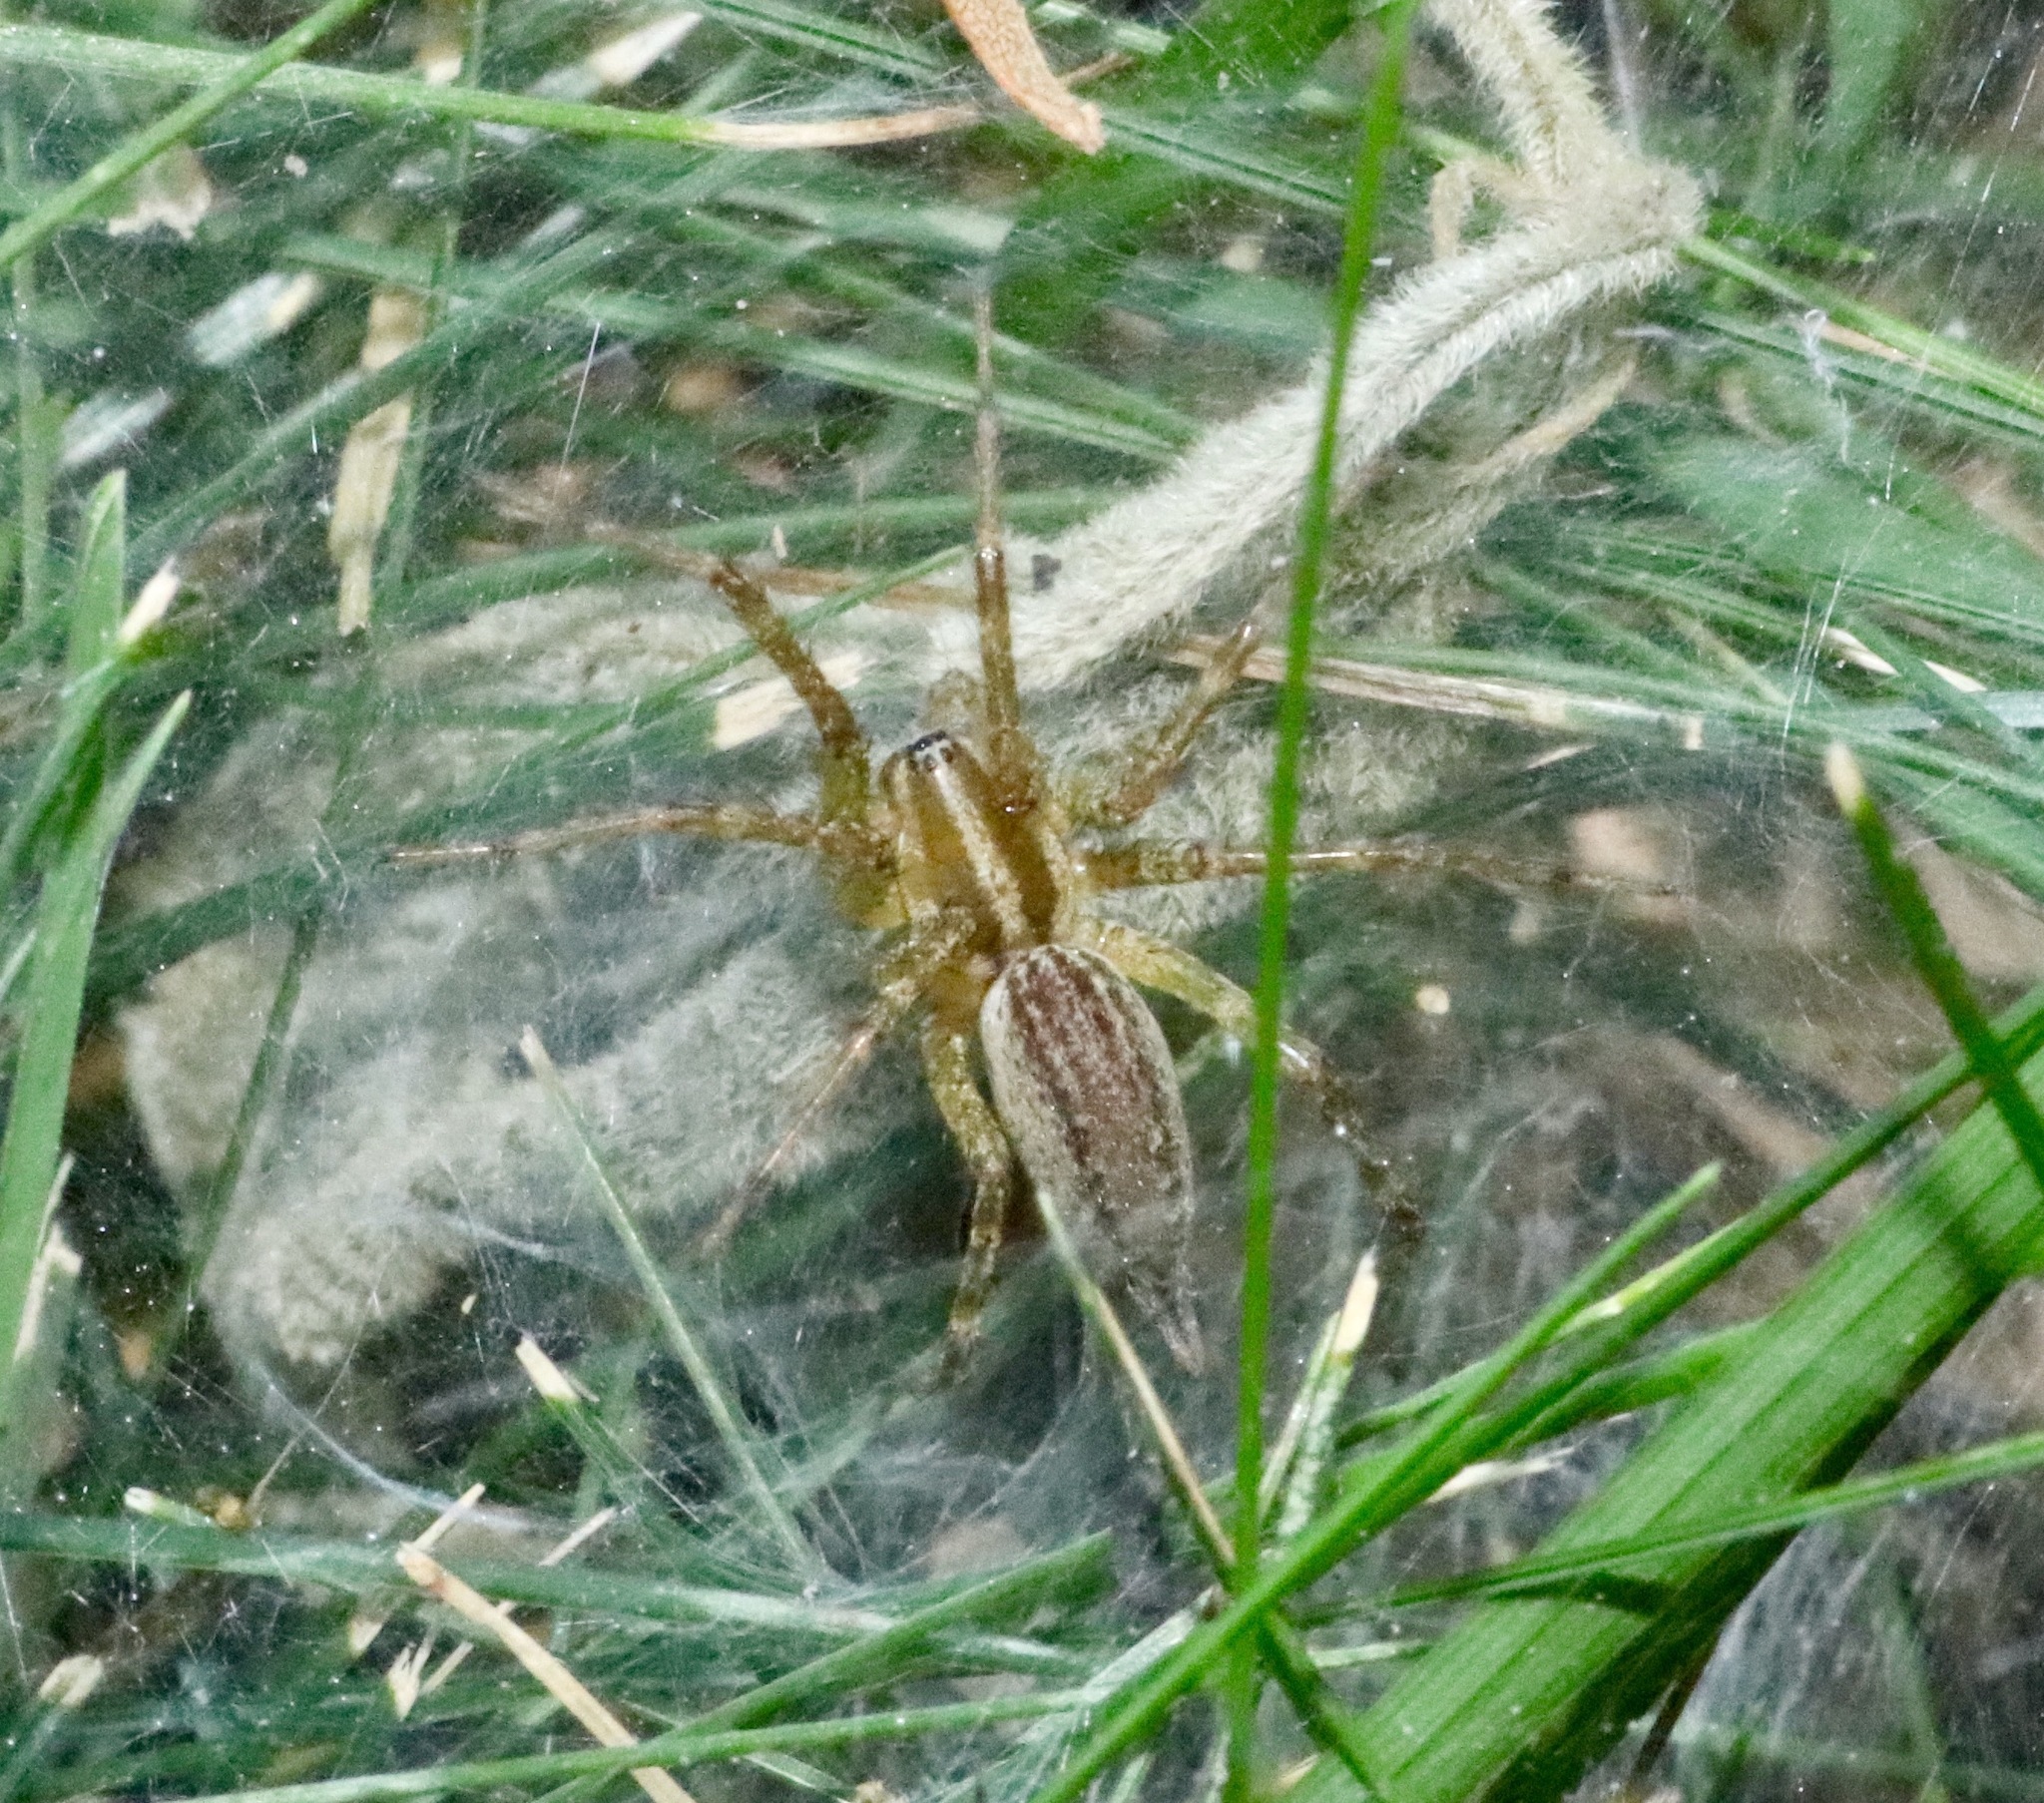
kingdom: Animalia
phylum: Arthropoda
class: Arachnida
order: Araneae
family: Agelenidae
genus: Agelenopsis
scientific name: Agelenopsis
